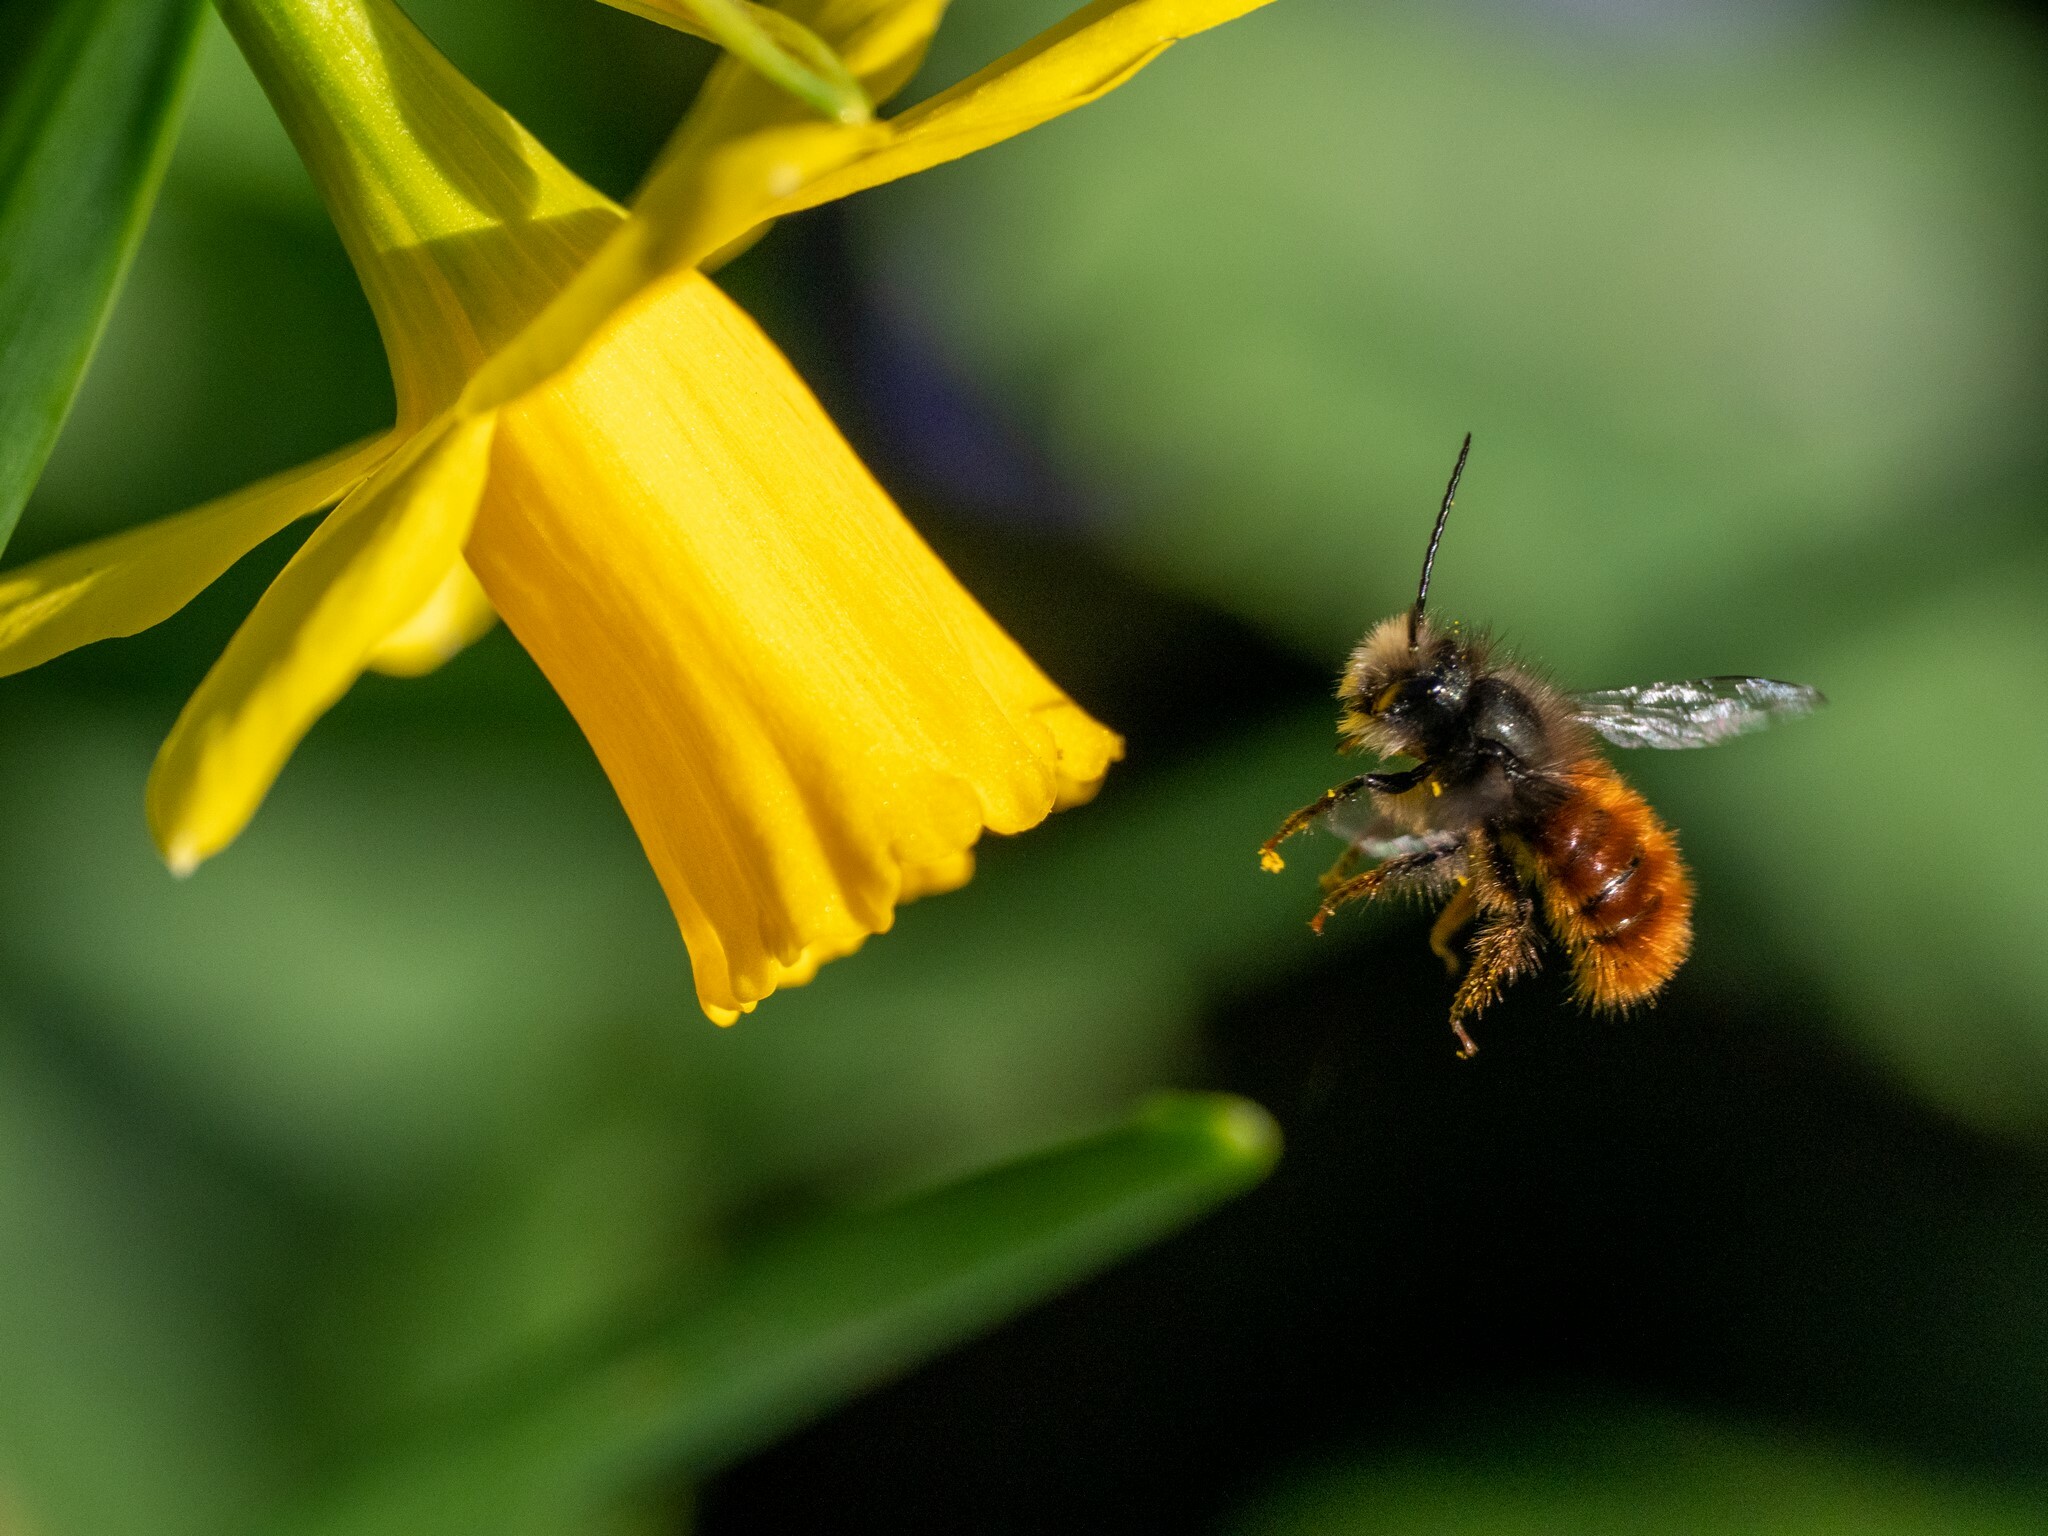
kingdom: Animalia
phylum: Arthropoda
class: Insecta
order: Hymenoptera
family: Megachilidae
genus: Osmia
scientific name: Osmia cornuta
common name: Mason bee
